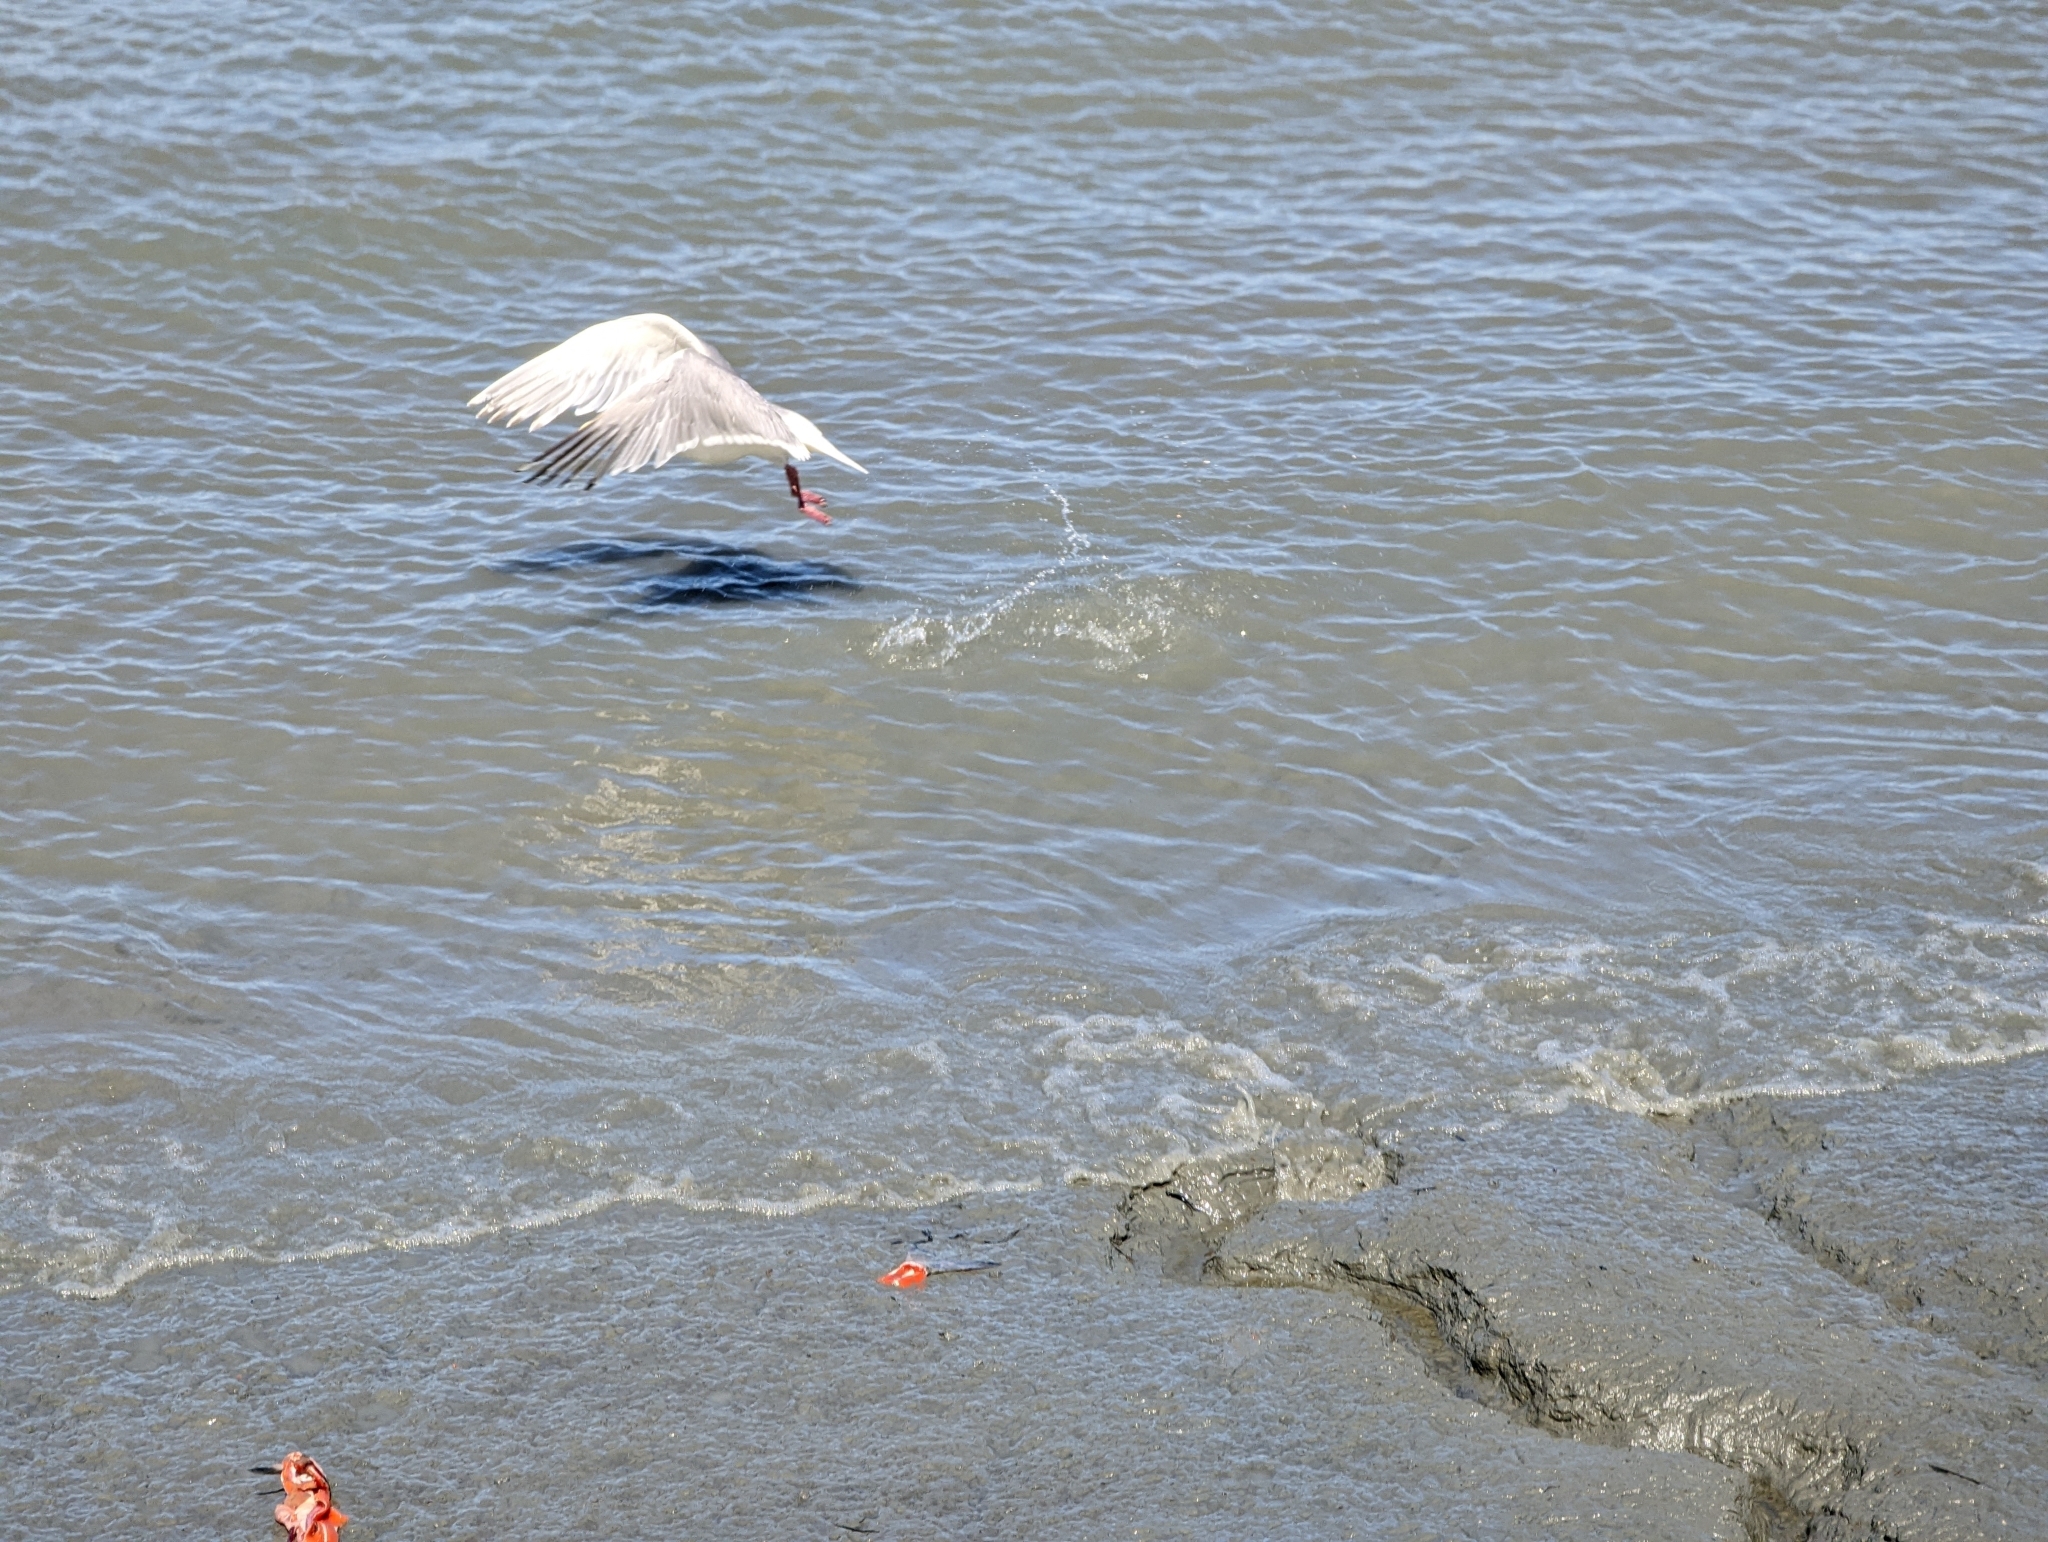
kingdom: Animalia
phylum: Chordata
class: Aves
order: Charadriiformes
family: Laridae
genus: Larus
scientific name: Larus
